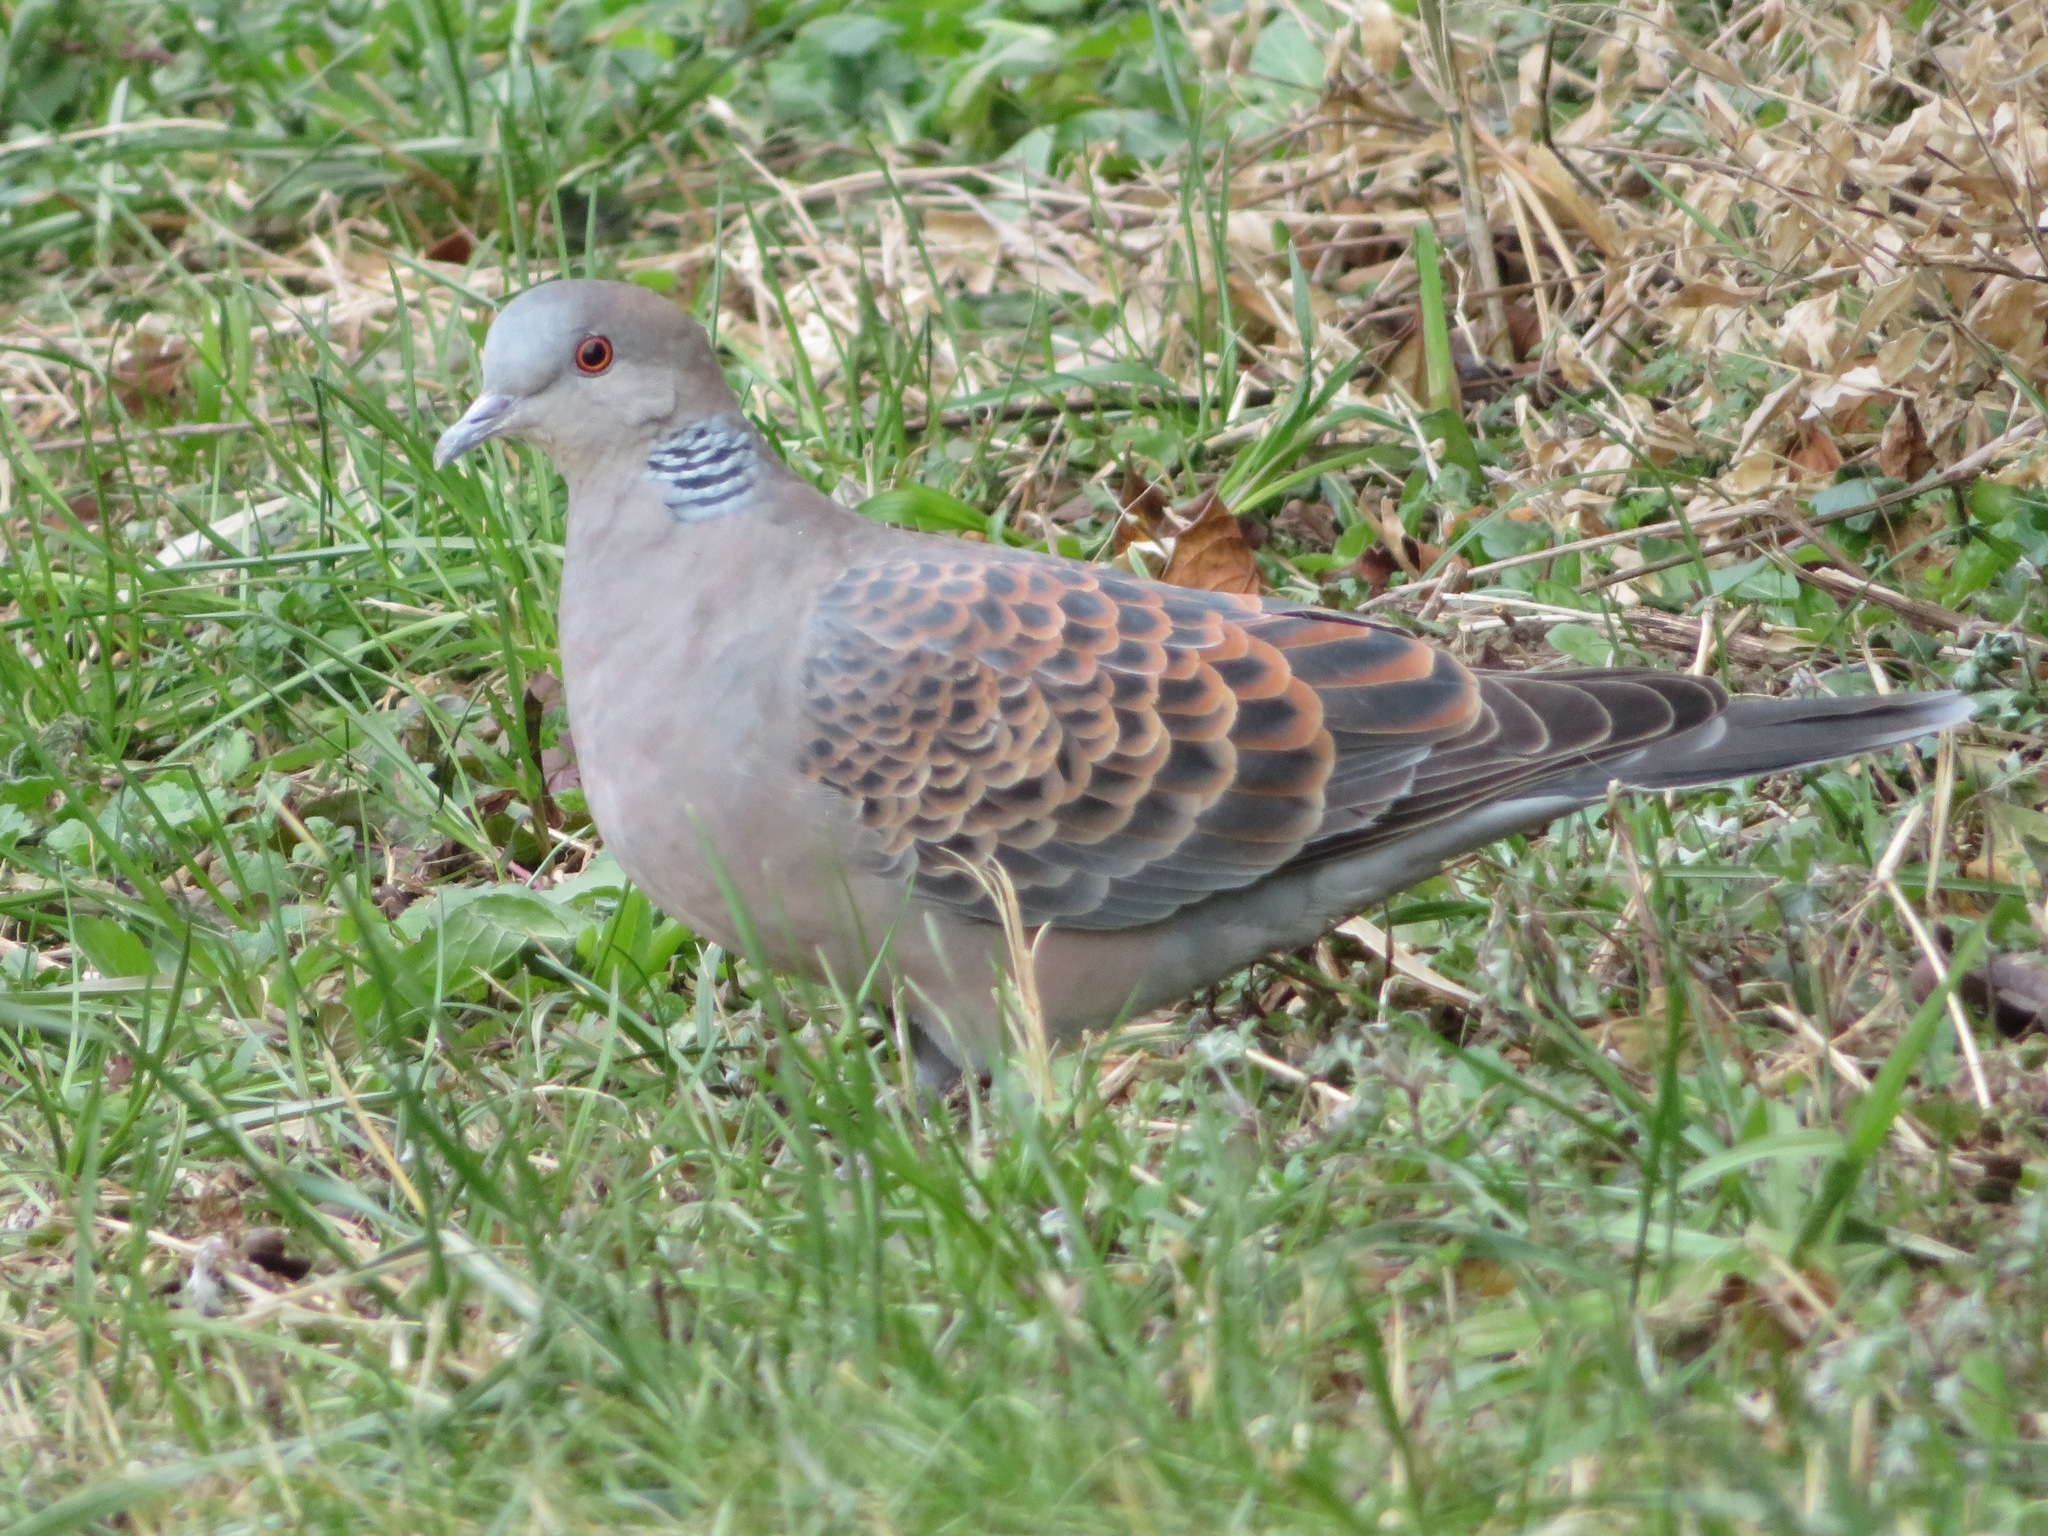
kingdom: Animalia
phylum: Chordata
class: Aves
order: Columbiformes
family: Columbidae
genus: Streptopelia
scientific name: Streptopelia orientalis
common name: Oriental turtle dove
